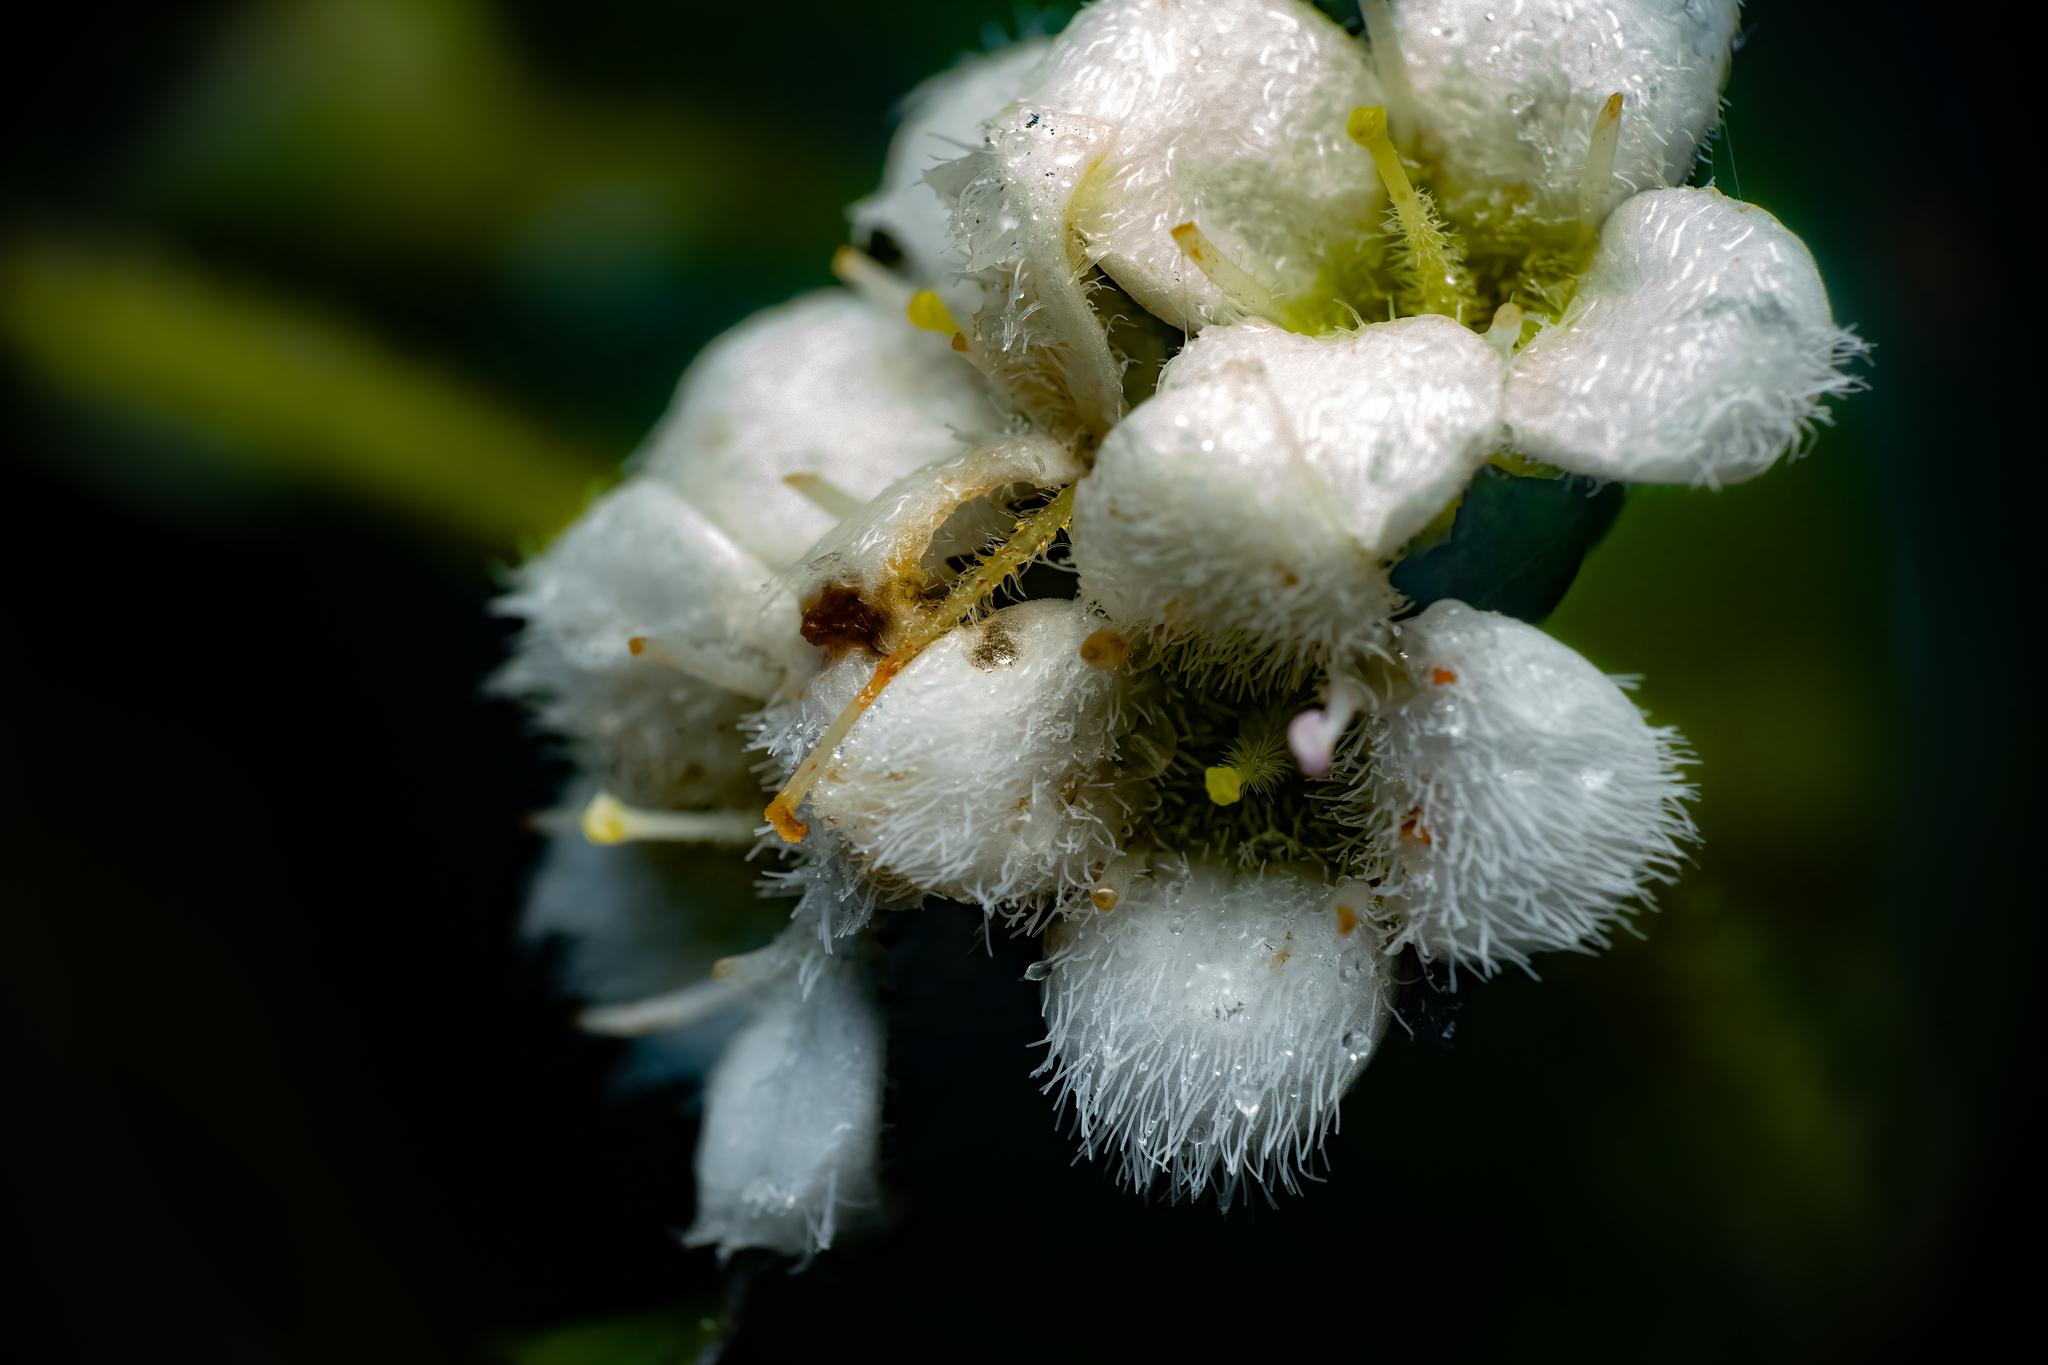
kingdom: Plantae
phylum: Tracheophyta
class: Magnoliopsida
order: Gentianales
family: Rubiaceae
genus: Hedyotis
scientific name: Hedyotis macrostegia
